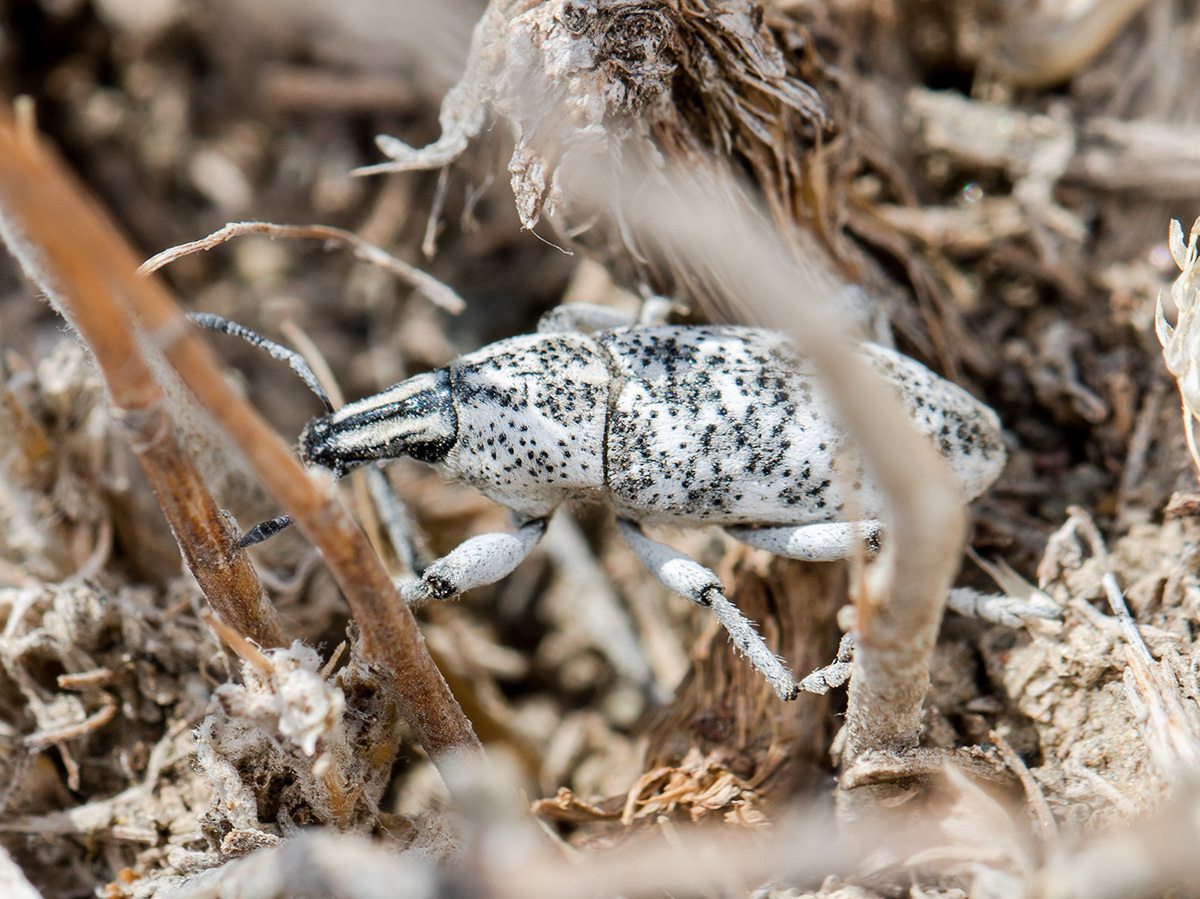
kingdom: Animalia
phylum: Arthropoda
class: Insecta
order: Coleoptera
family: Curculionidae
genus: Cyphocleonus
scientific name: Cyphocleonus cenchrus
